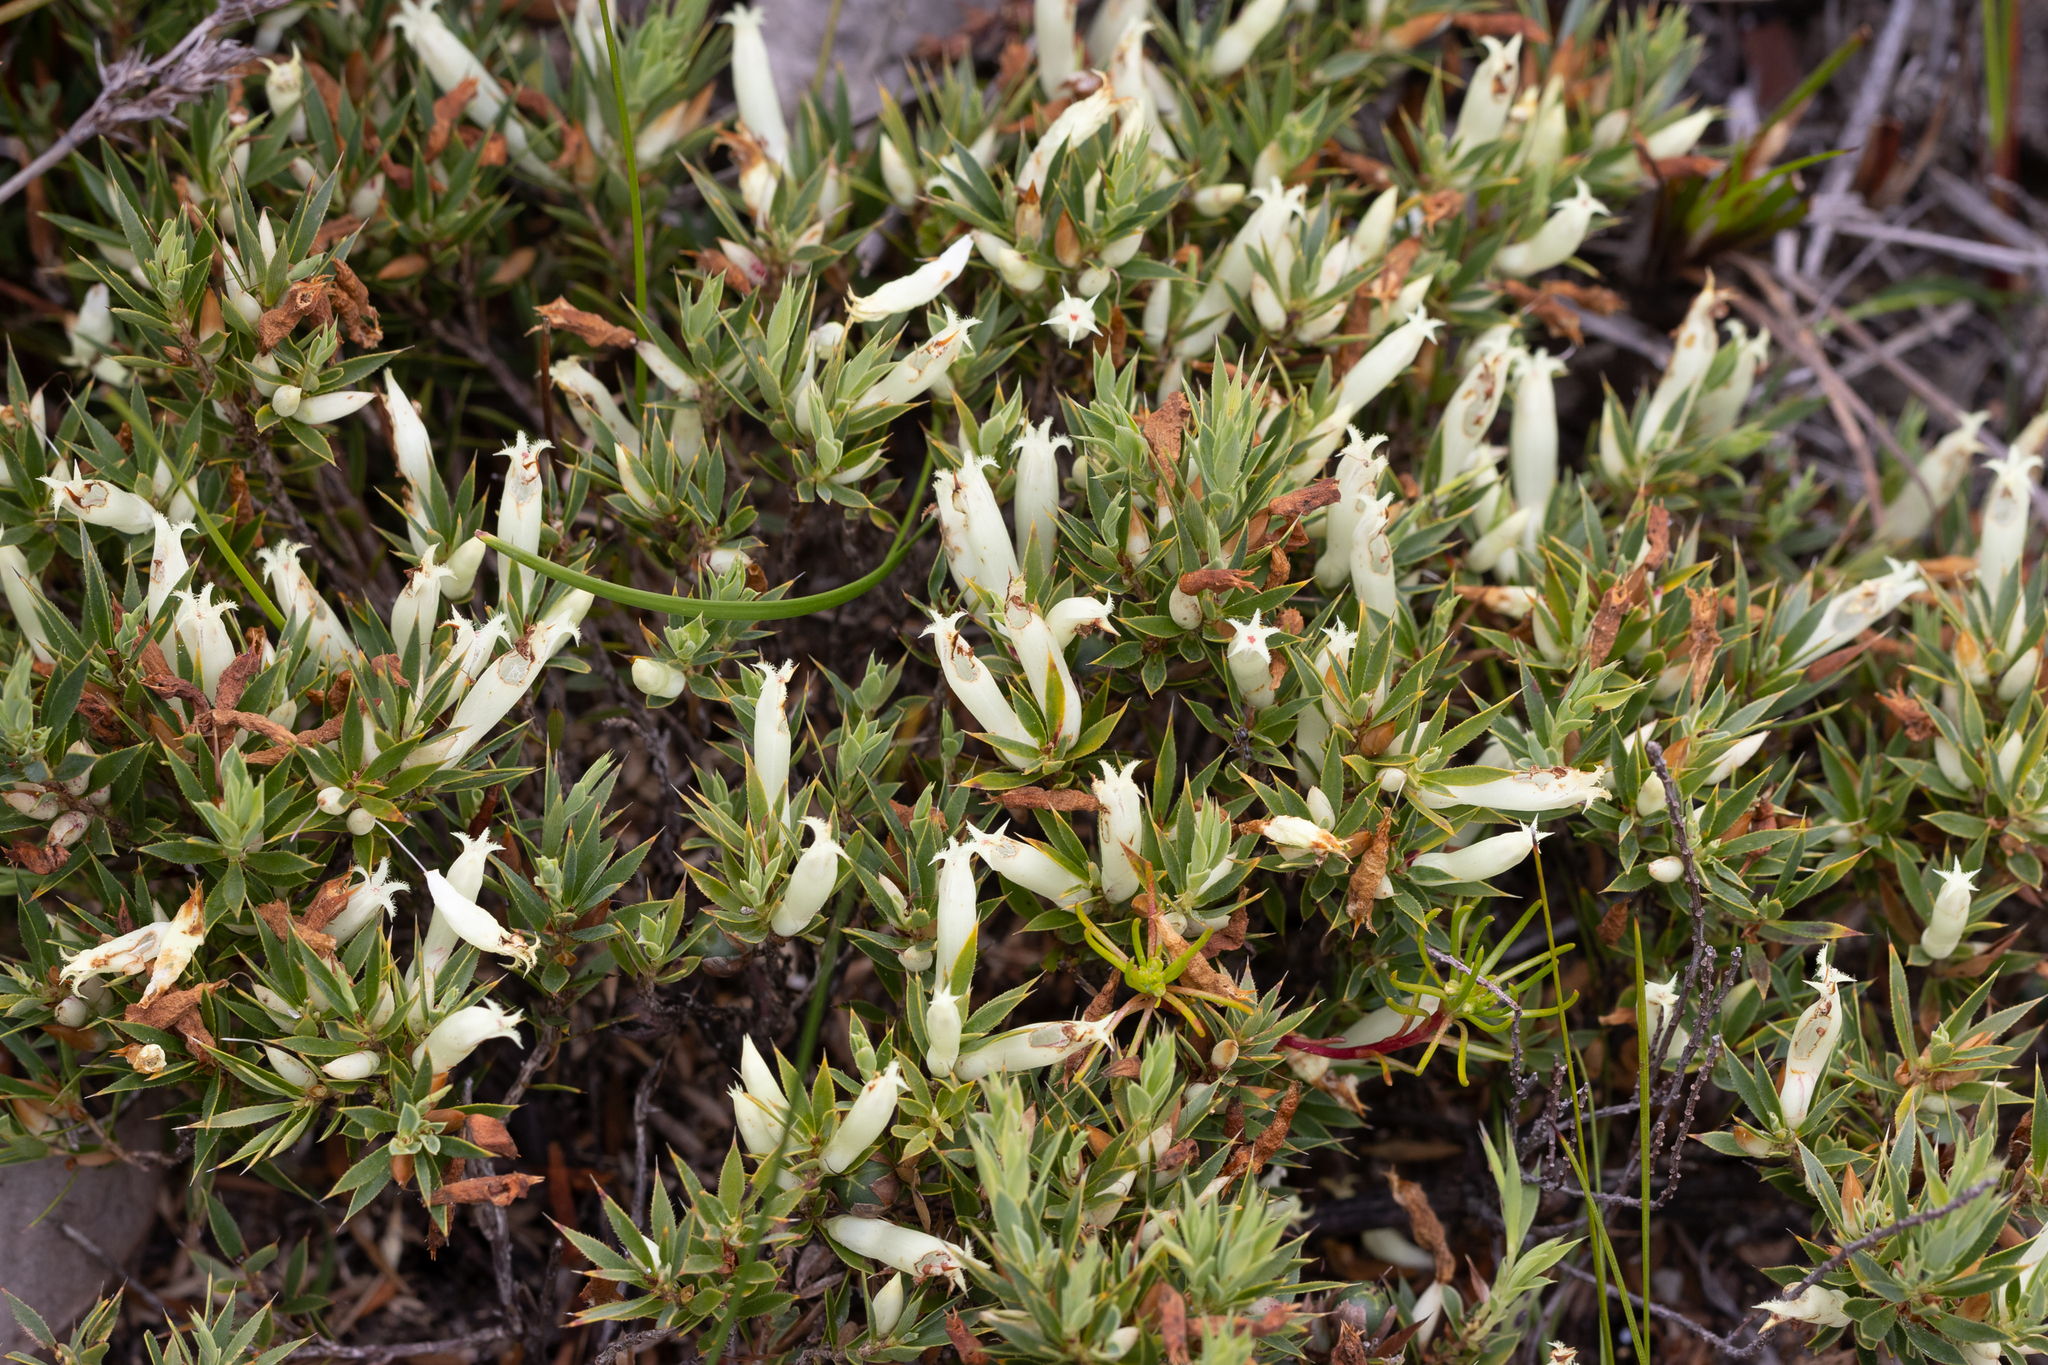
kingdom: Plantae
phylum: Tracheophyta
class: Magnoliopsida
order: Ericales
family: Ericaceae
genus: Styphelia
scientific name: Styphelia pallida
